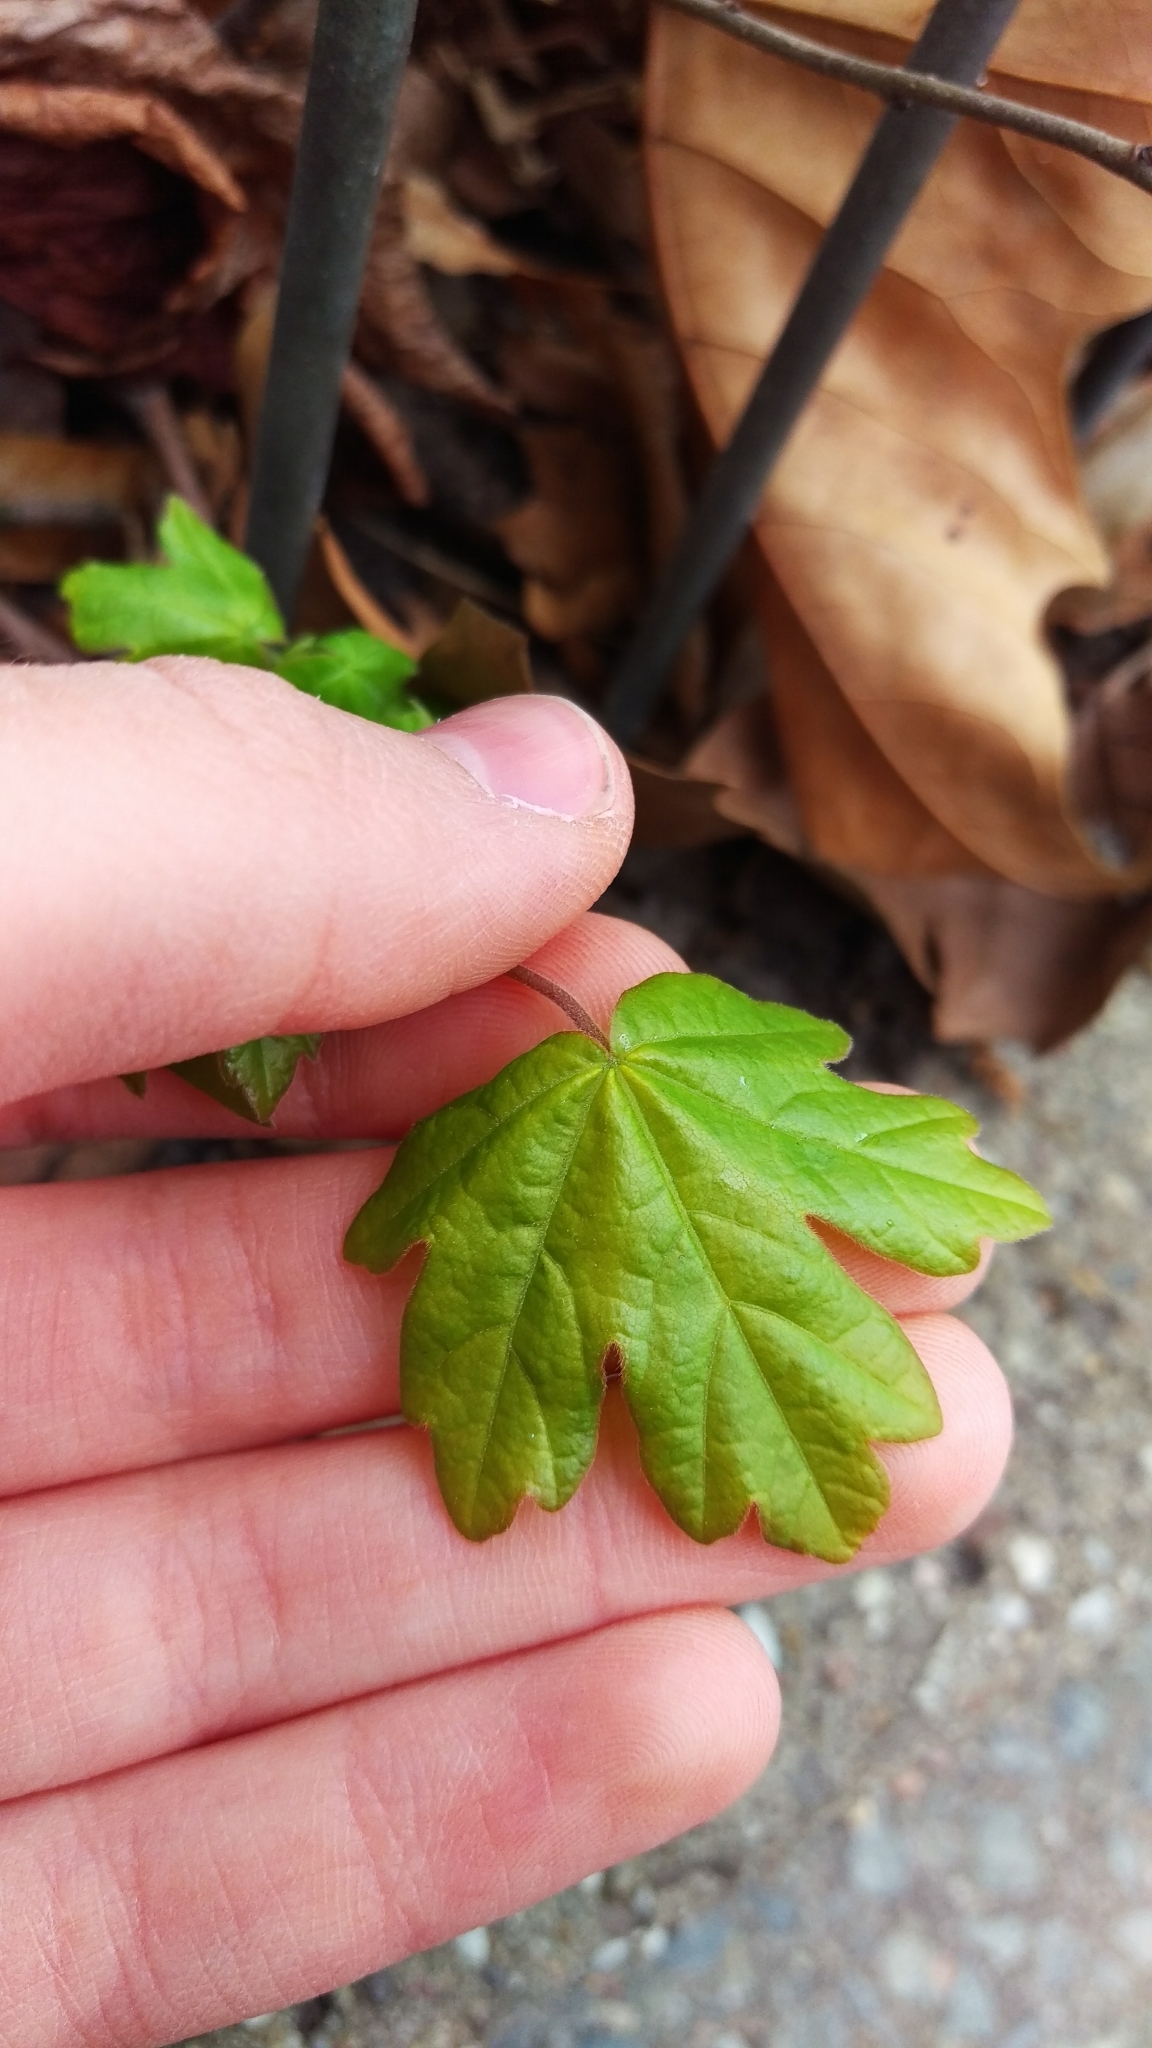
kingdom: Plantae
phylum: Tracheophyta
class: Magnoliopsida
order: Sapindales
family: Sapindaceae
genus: Acer
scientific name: Acer campestre
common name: Field maple
